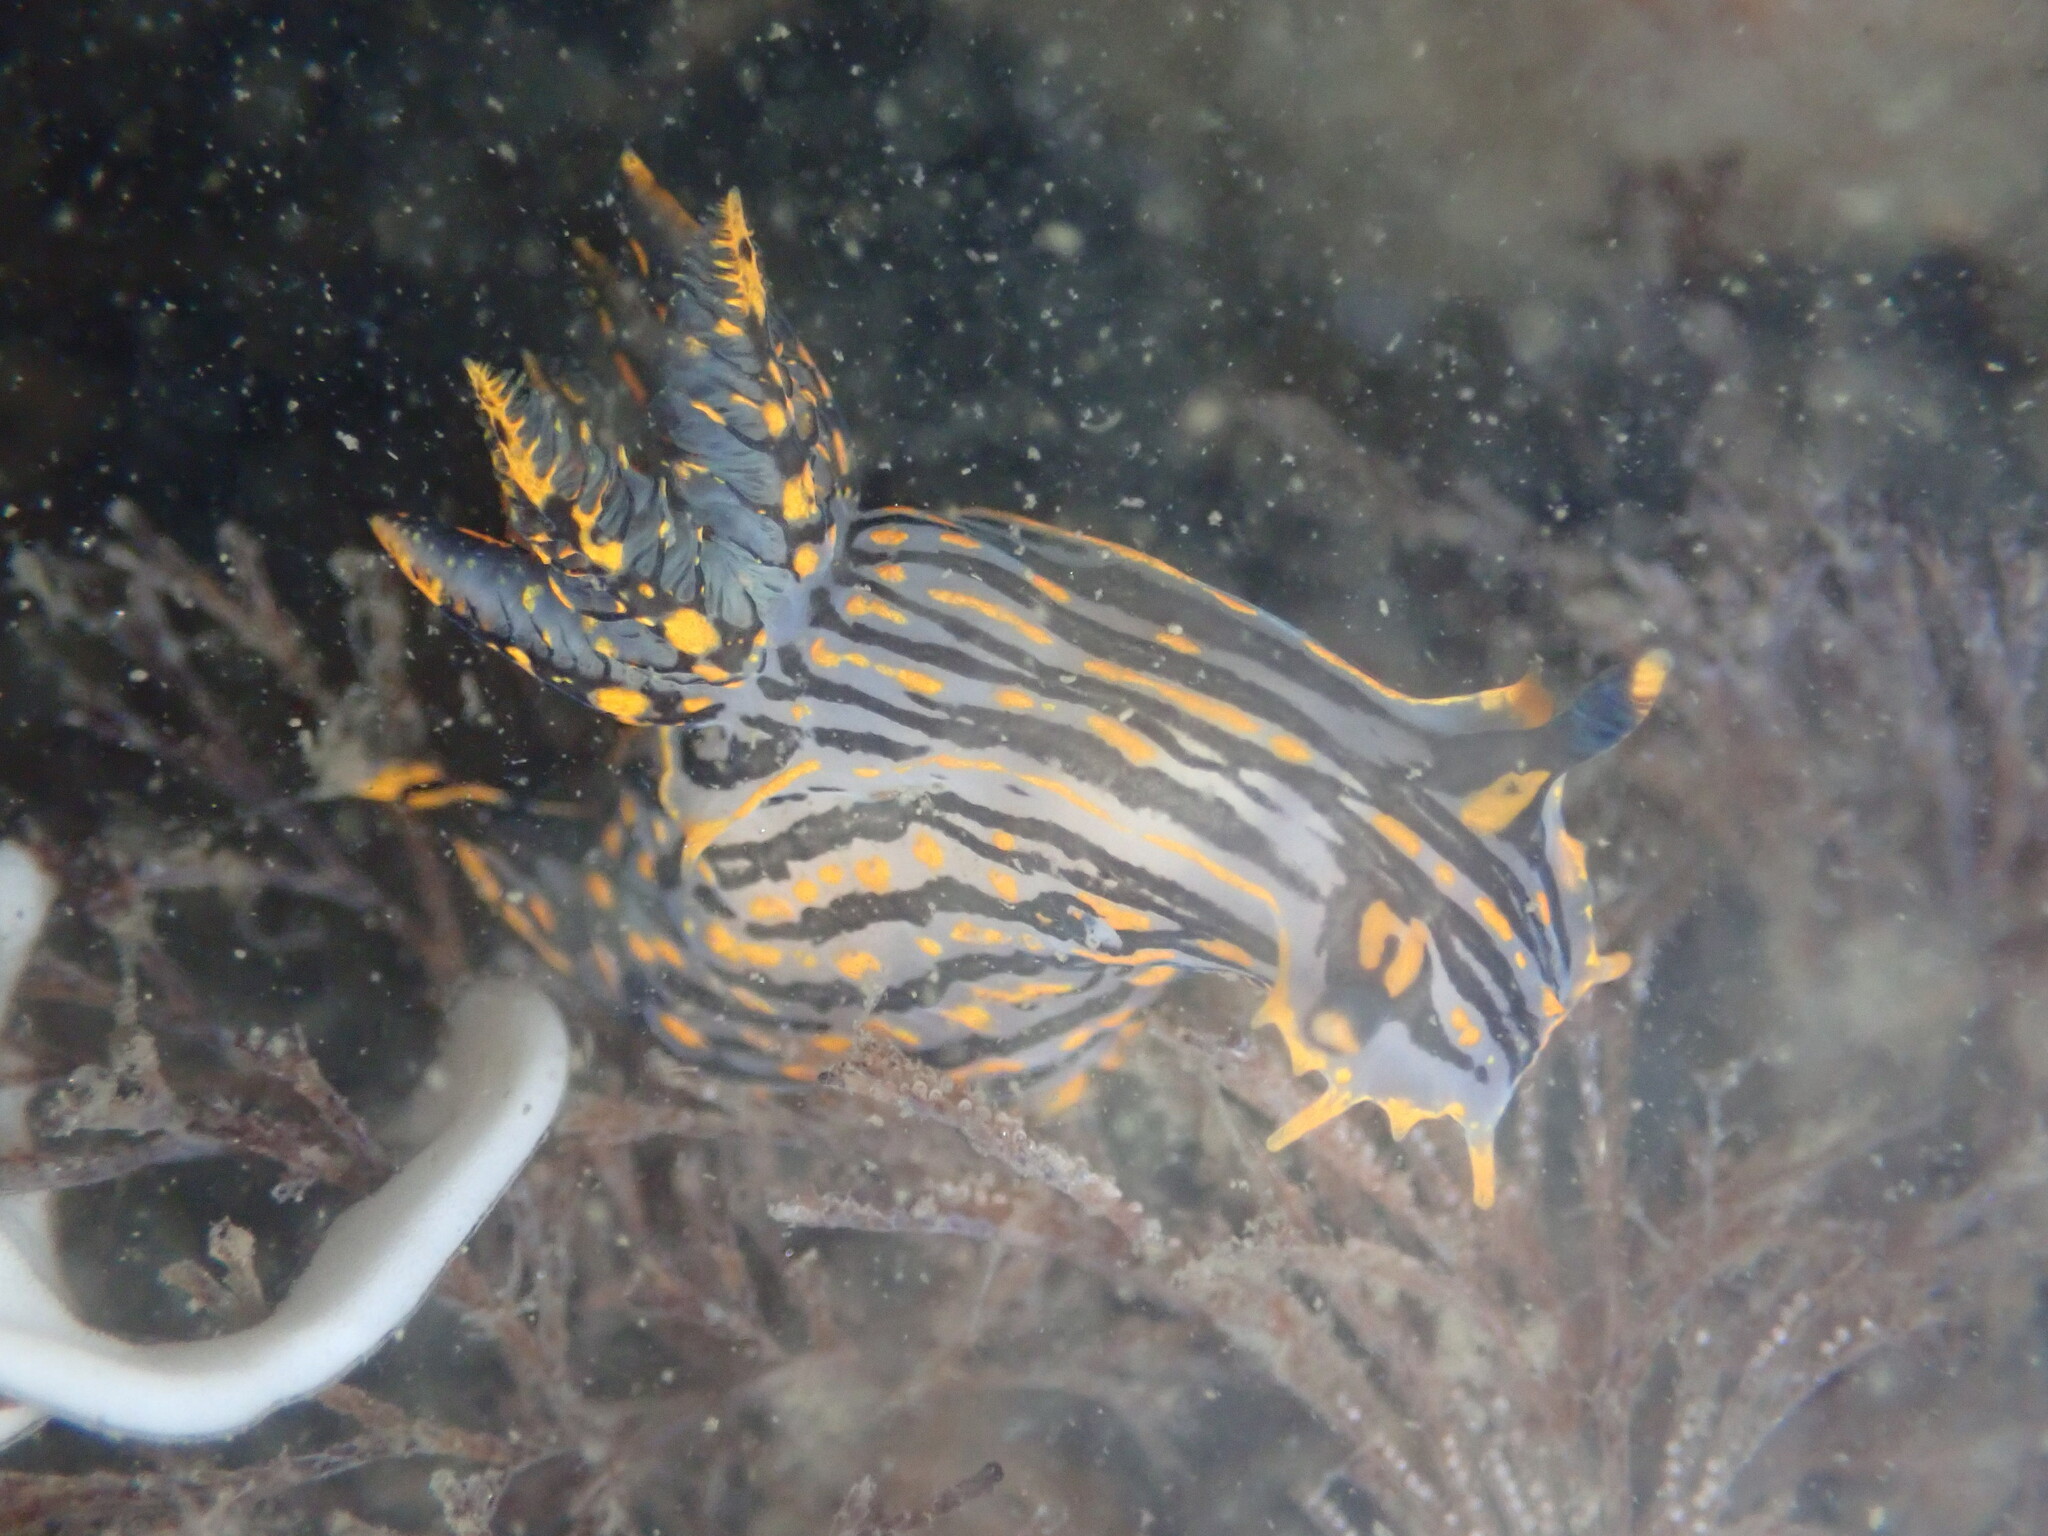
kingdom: Animalia
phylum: Mollusca
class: Gastropoda
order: Nudibranchia
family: Polyceridae
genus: Polycera
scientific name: Polycera atra
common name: Orange-spike polycera
